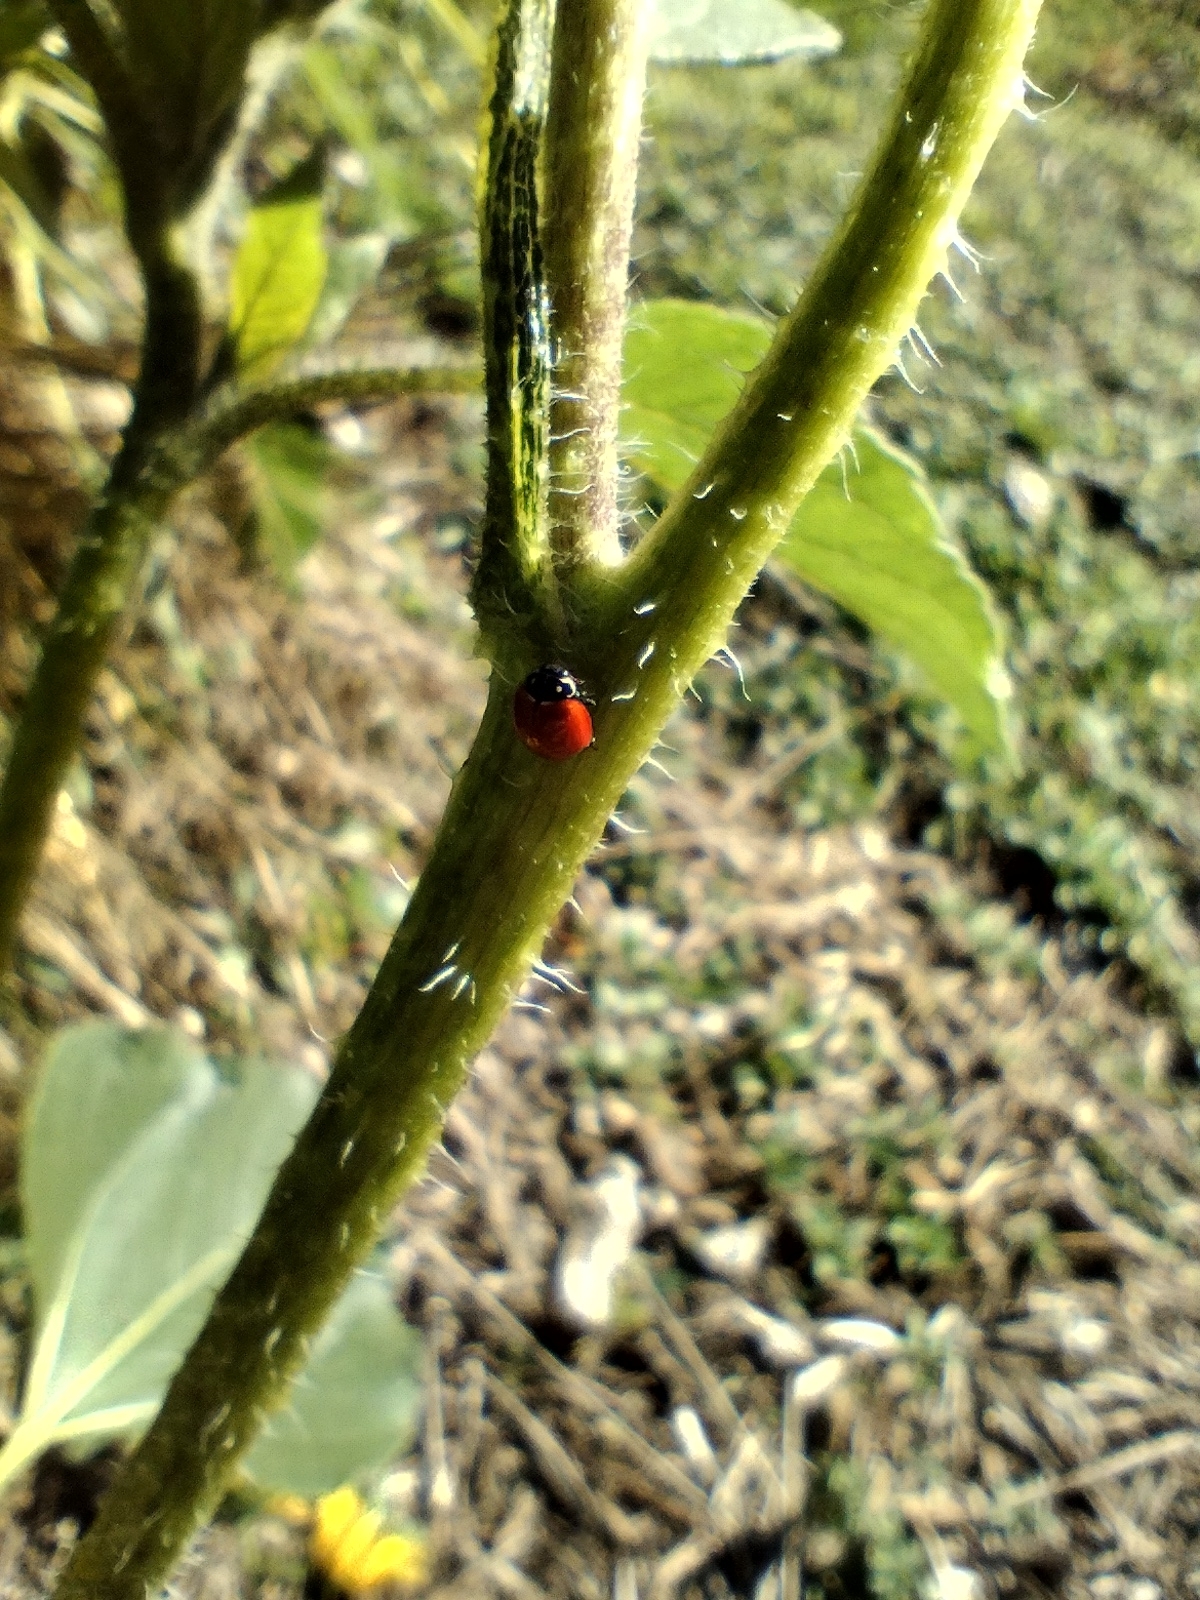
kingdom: Animalia
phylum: Arthropoda
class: Insecta
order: Coleoptera
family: Coccinellidae
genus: Cycloneda
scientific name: Cycloneda sanguinea
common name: Ladybird beetle
